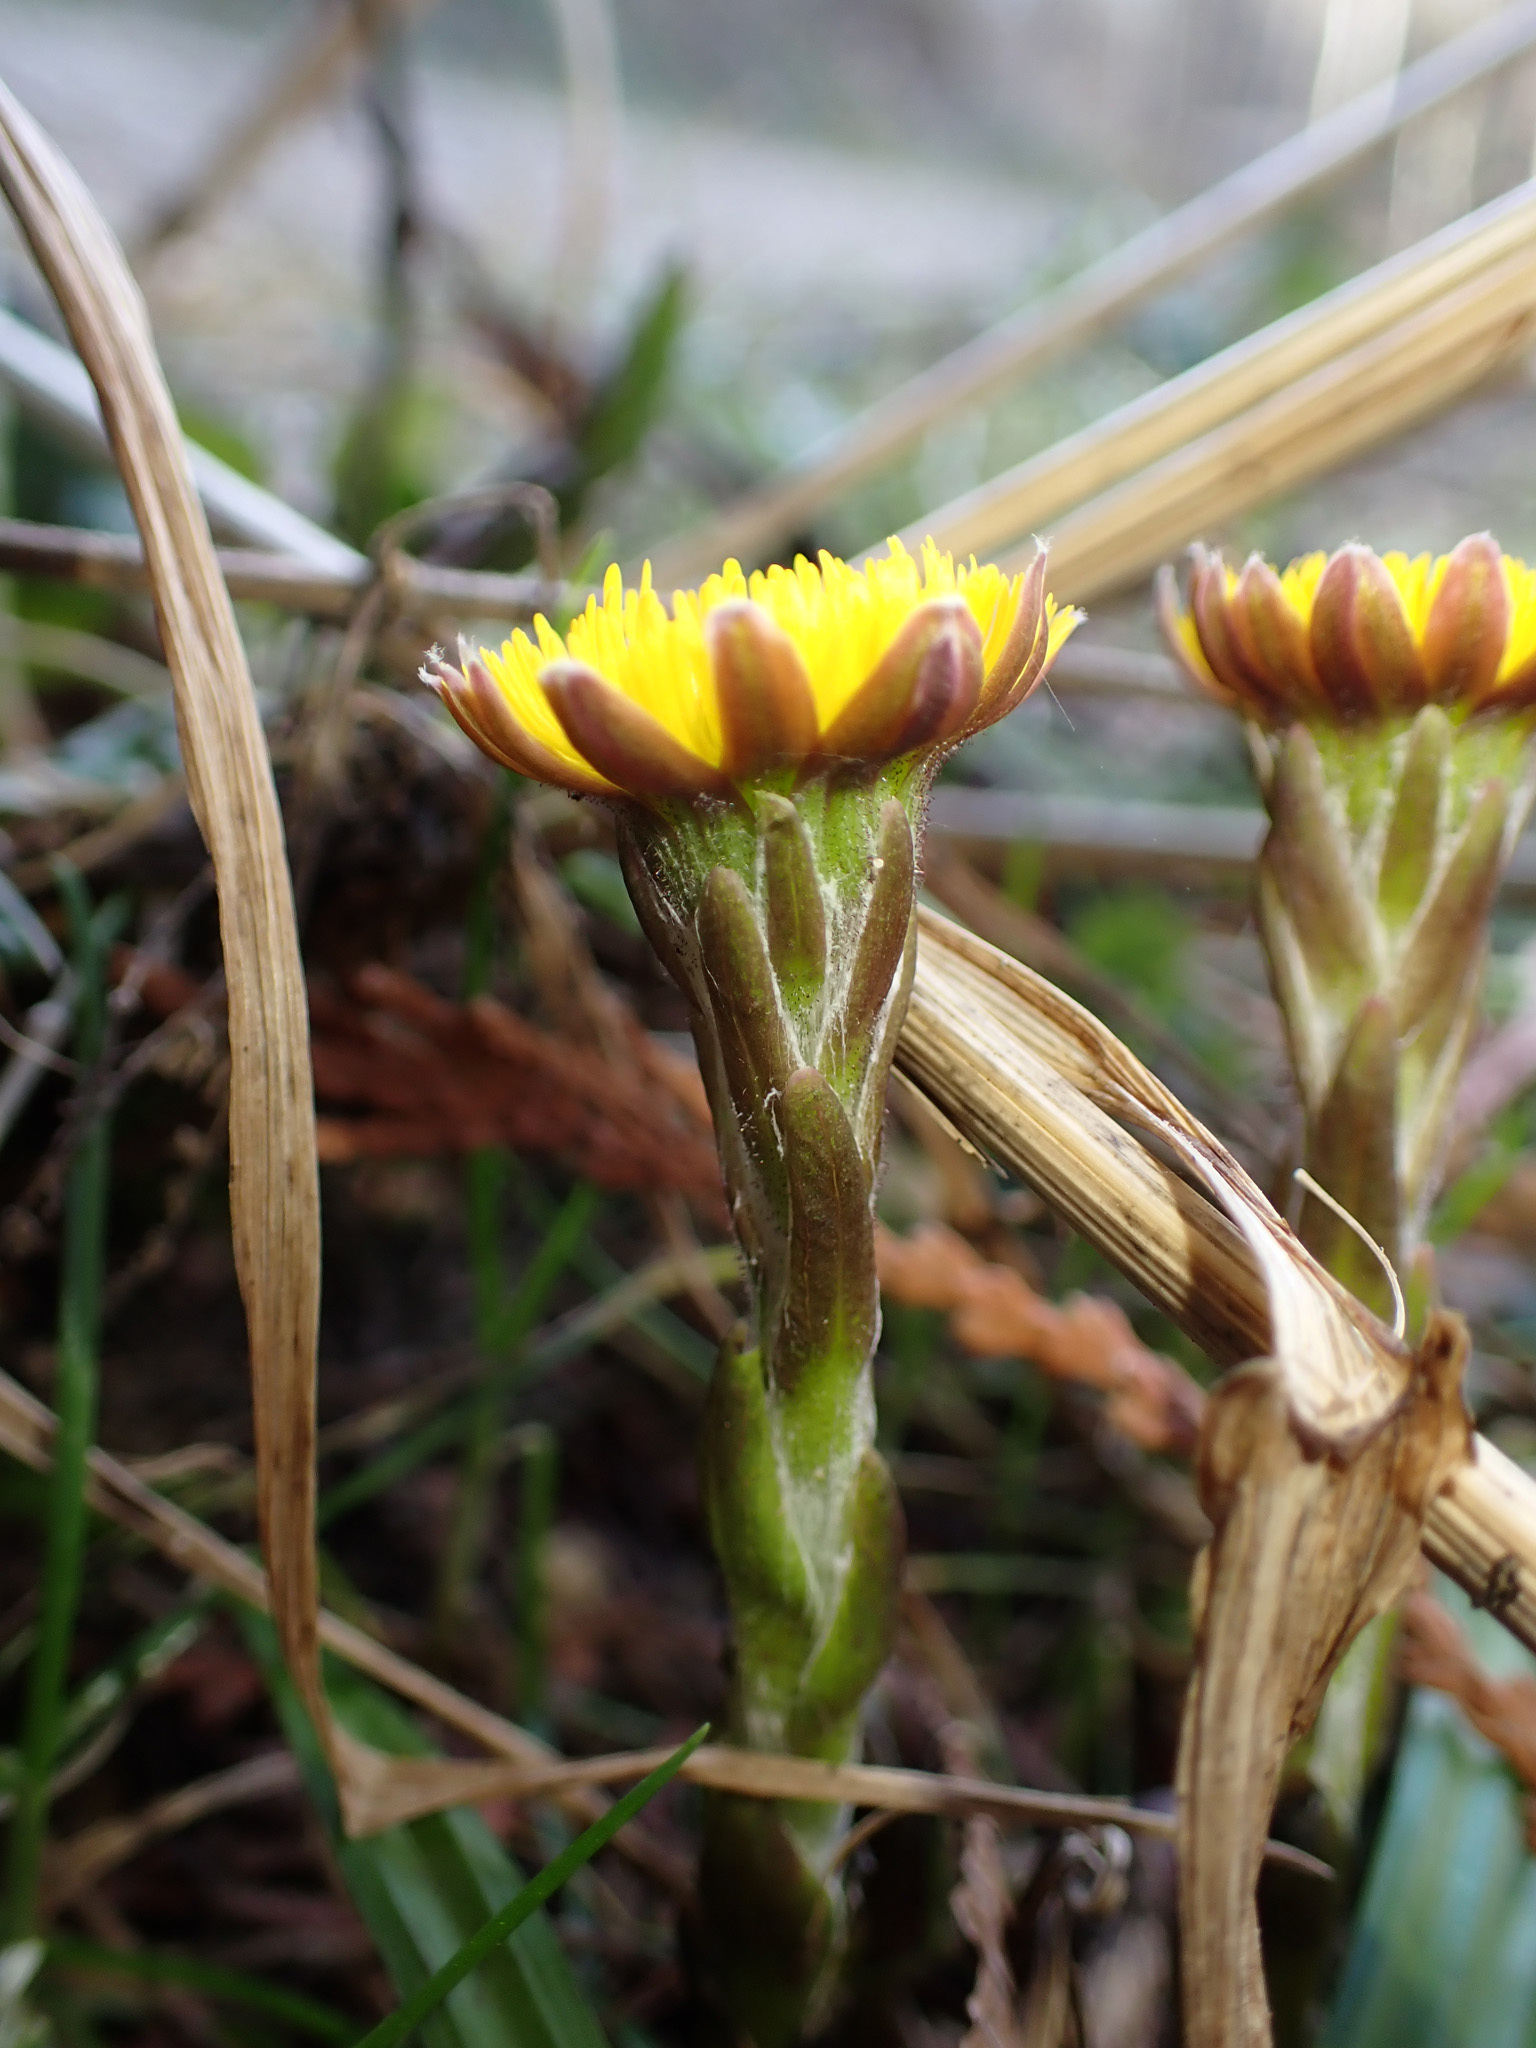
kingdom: Plantae
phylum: Tracheophyta
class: Magnoliopsida
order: Asterales
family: Asteraceae
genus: Tussilago
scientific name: Tussilago farfara
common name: Coltsfoot
